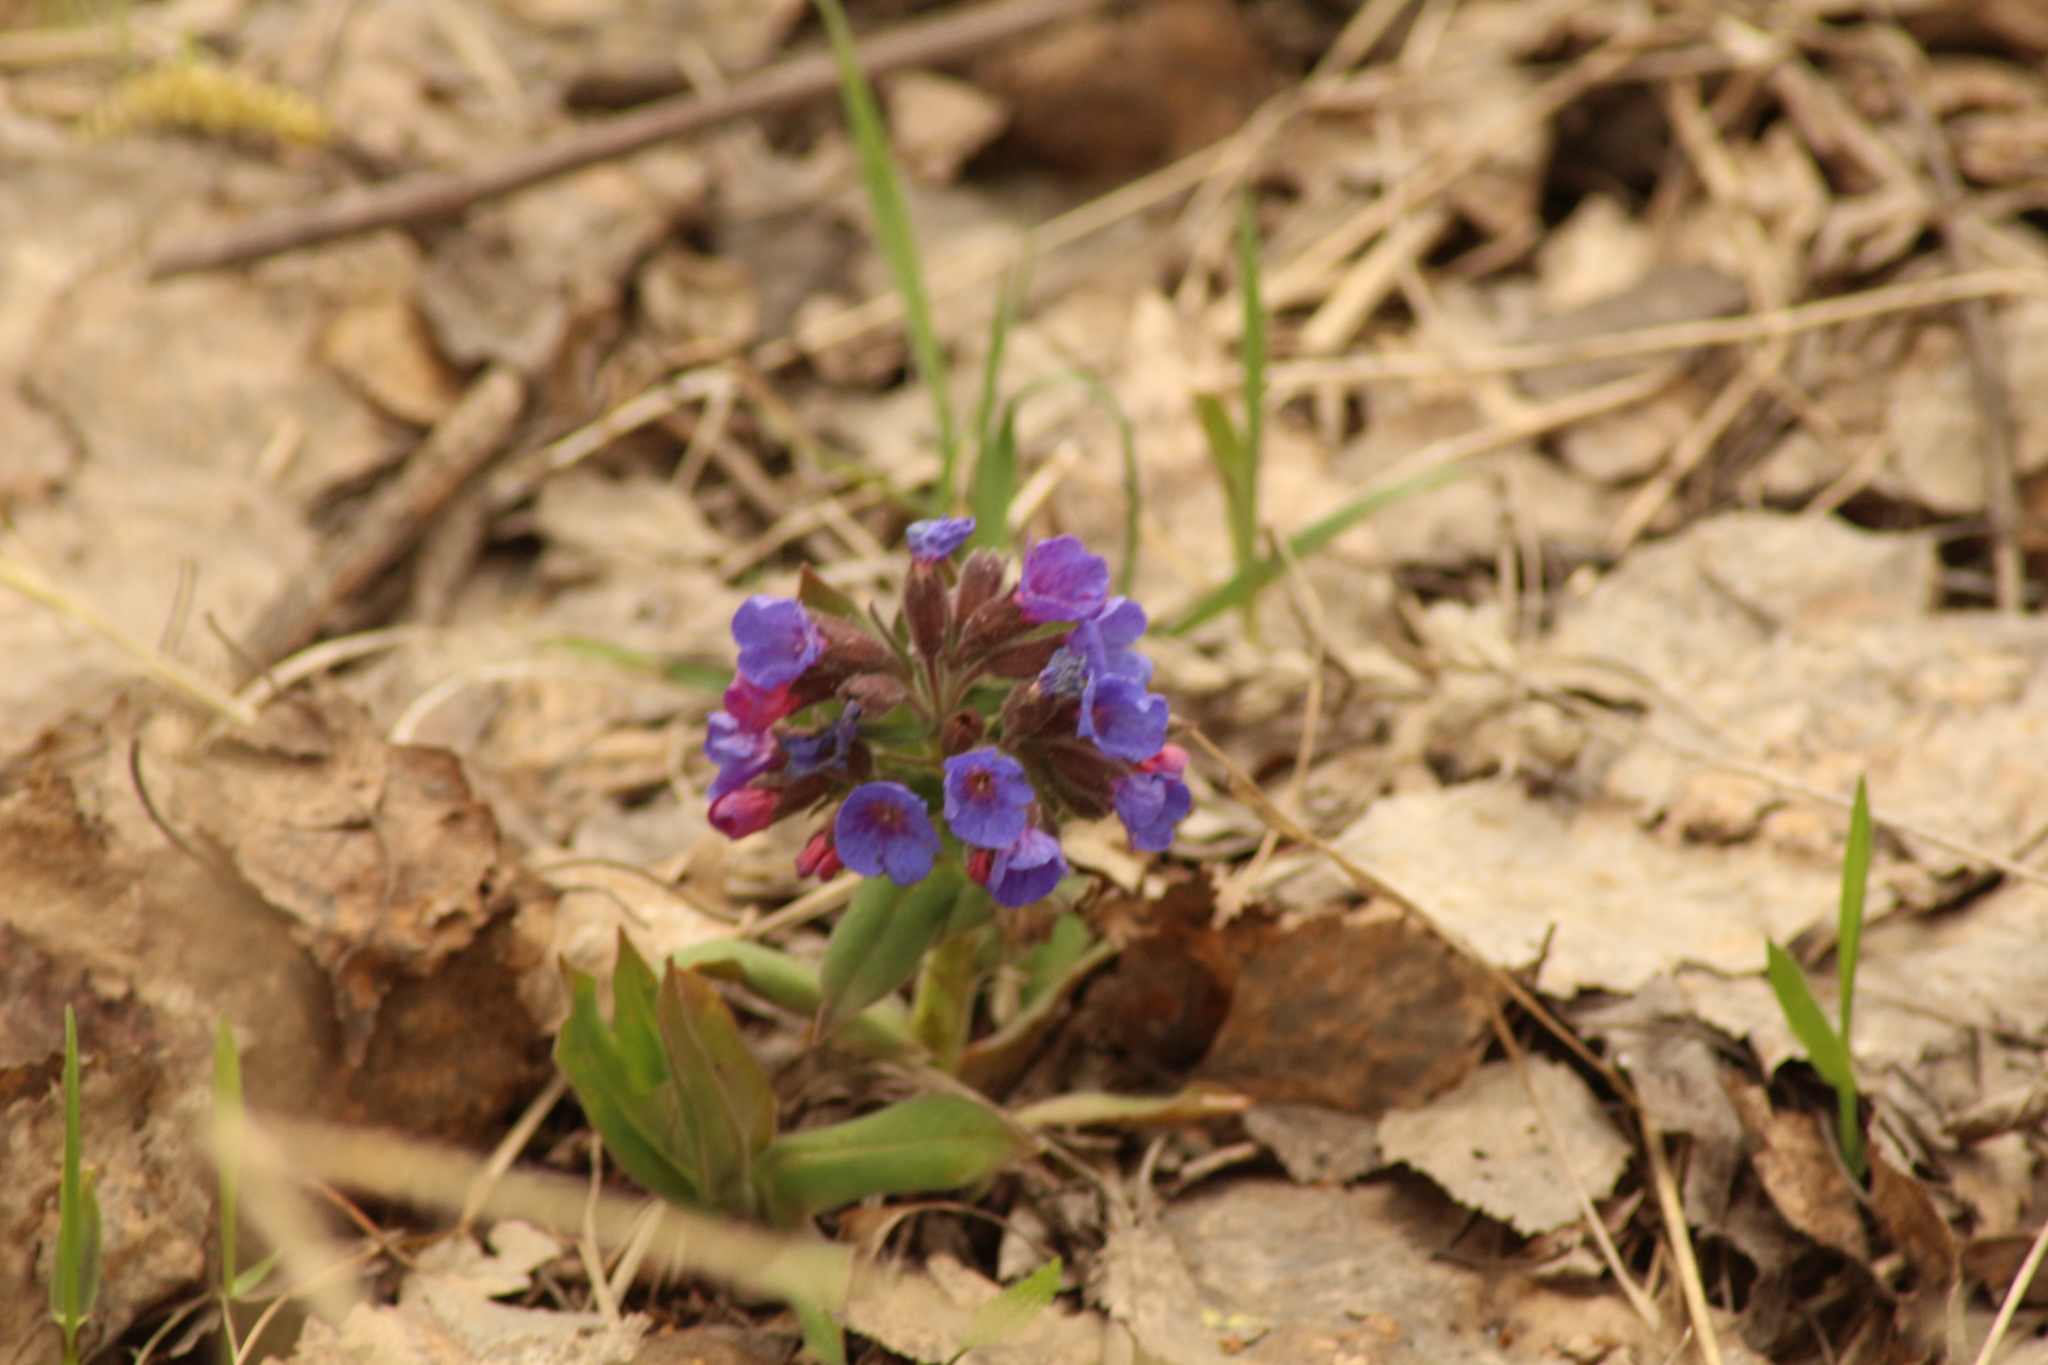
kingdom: Plantae
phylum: Tracheophyta
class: Magnoliopsida
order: Boraginales
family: Boraginaceae
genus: Pulmonaria
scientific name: Pulmonaria mollis
